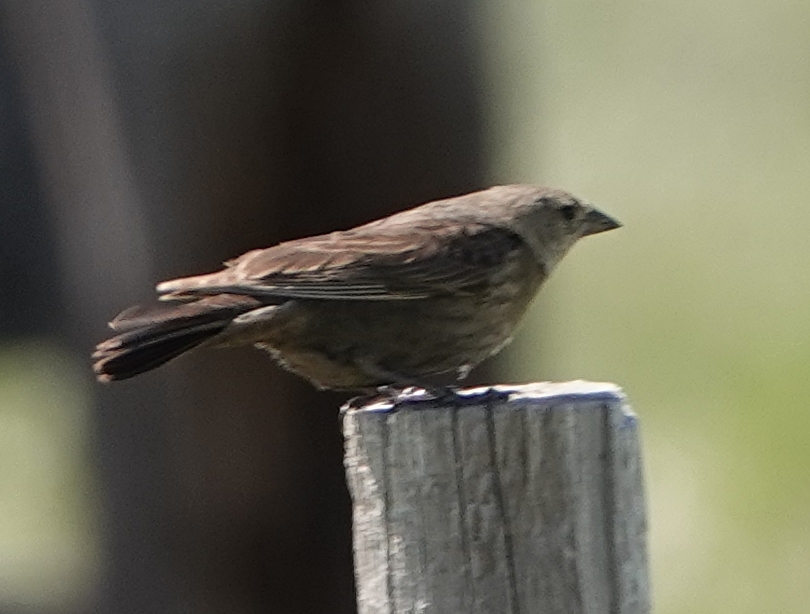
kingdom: Animalia
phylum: Chordata
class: Aves
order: Passeriformes
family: Icteridae
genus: Molothrus
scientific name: Molothrus ater
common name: Brown-headed cowbird
